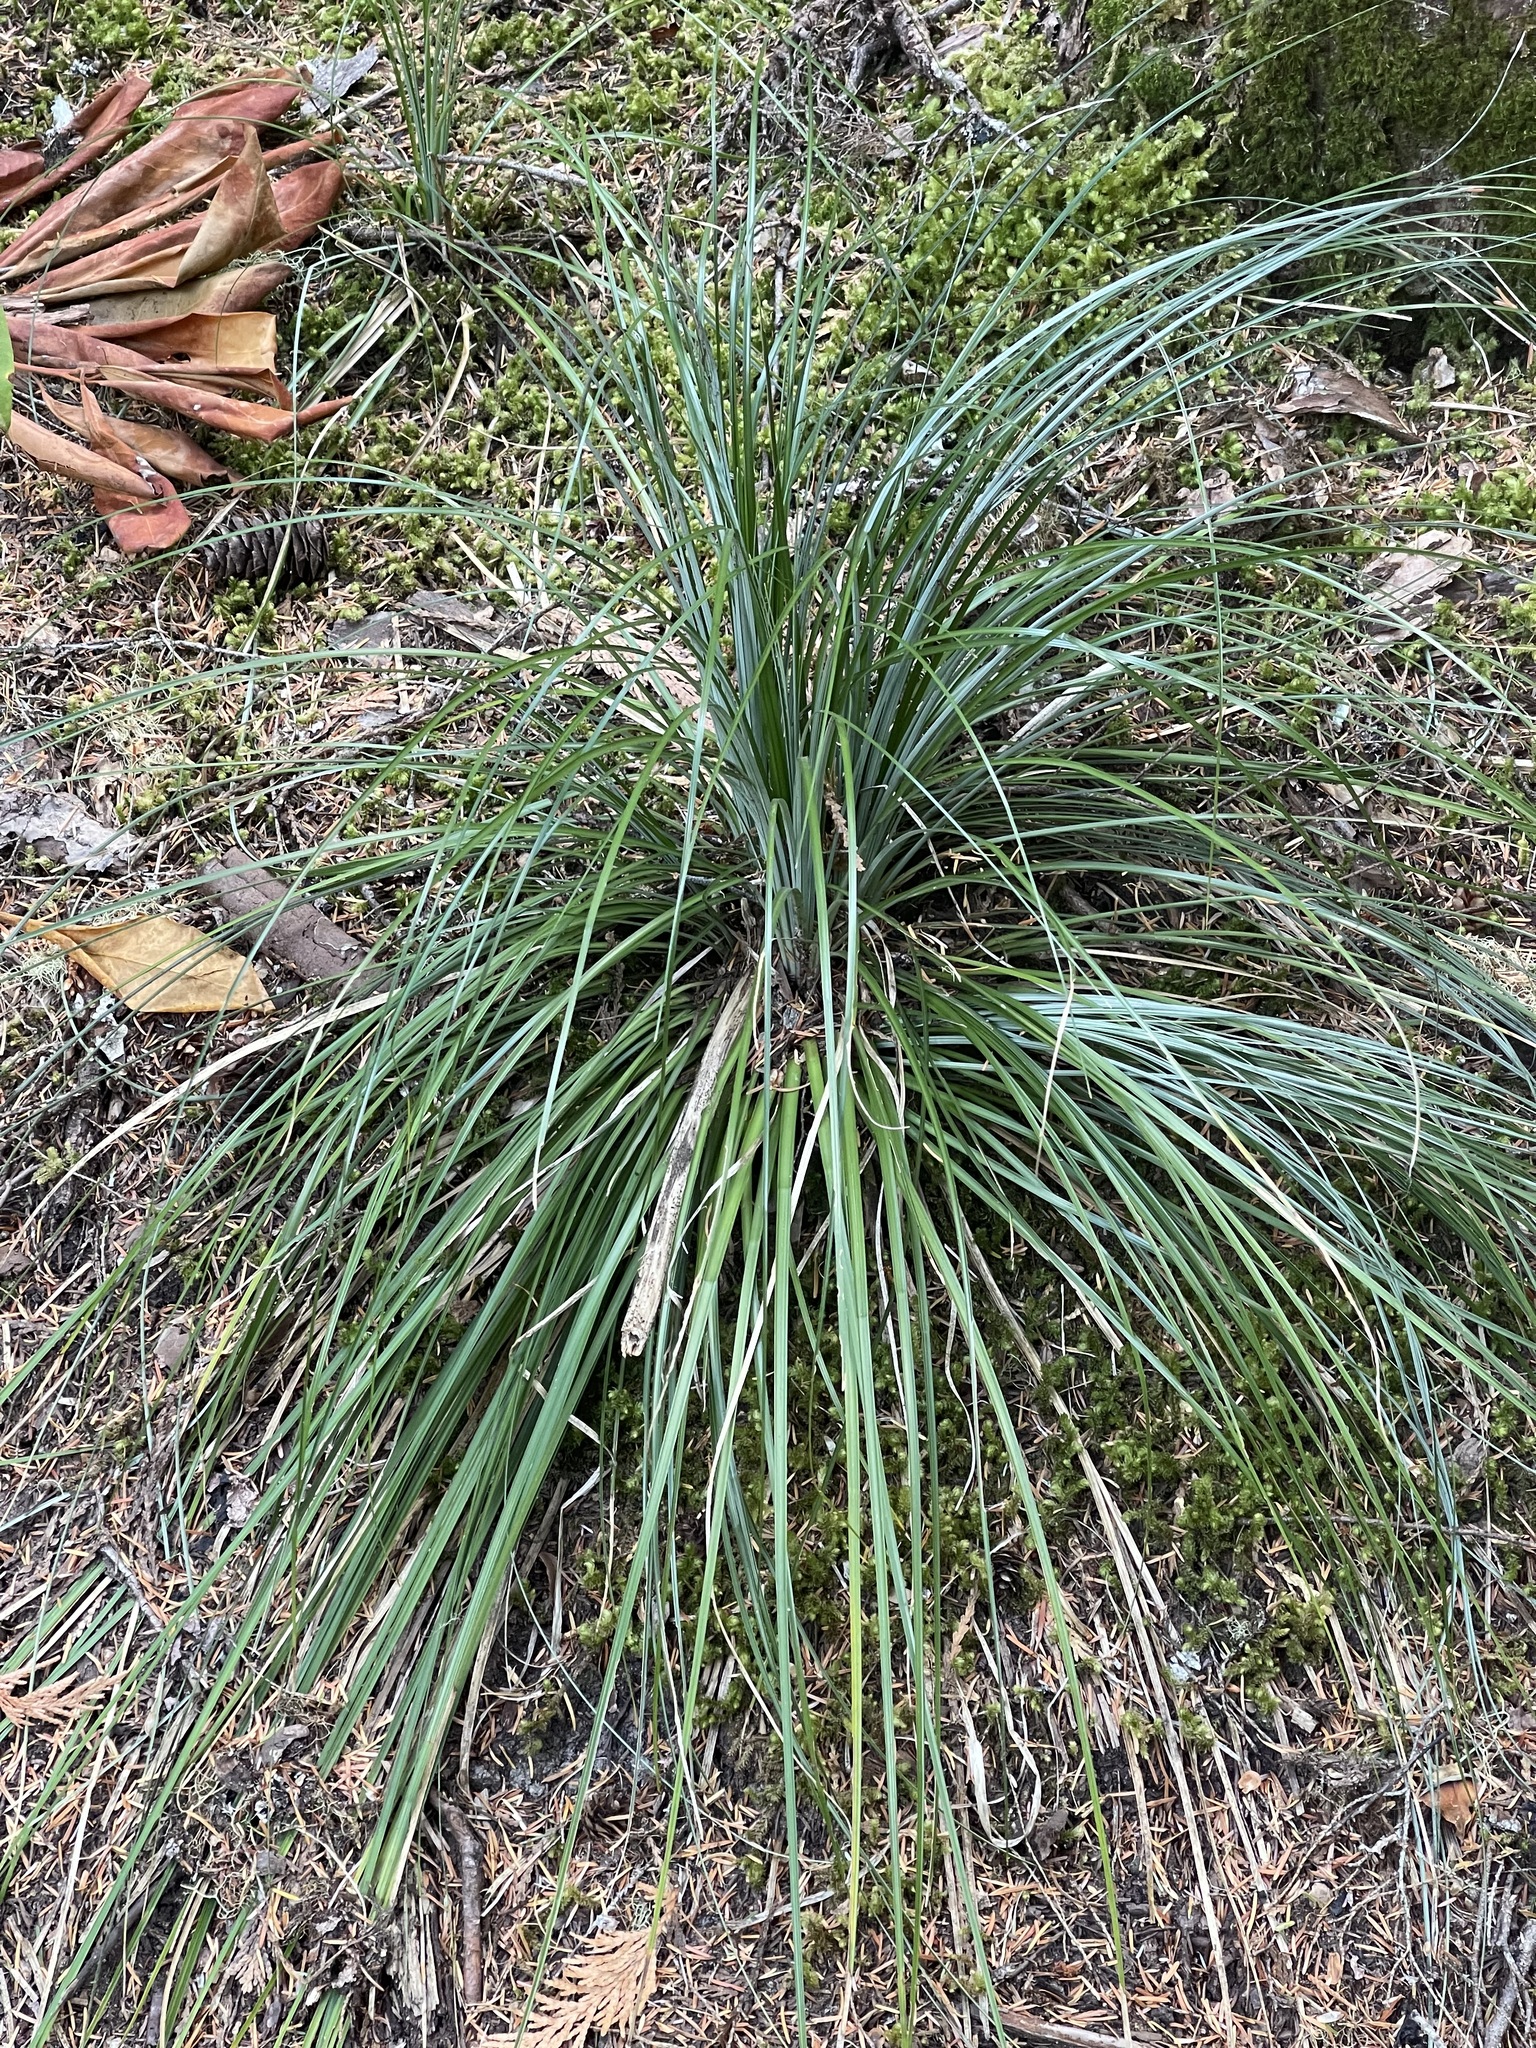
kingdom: Plantae
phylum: Tracheophyta
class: Liliopsida
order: Liliales
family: Melanthiaceae
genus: Xerophyllum
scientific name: Xerophyllum tenax
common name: Bear-grass
